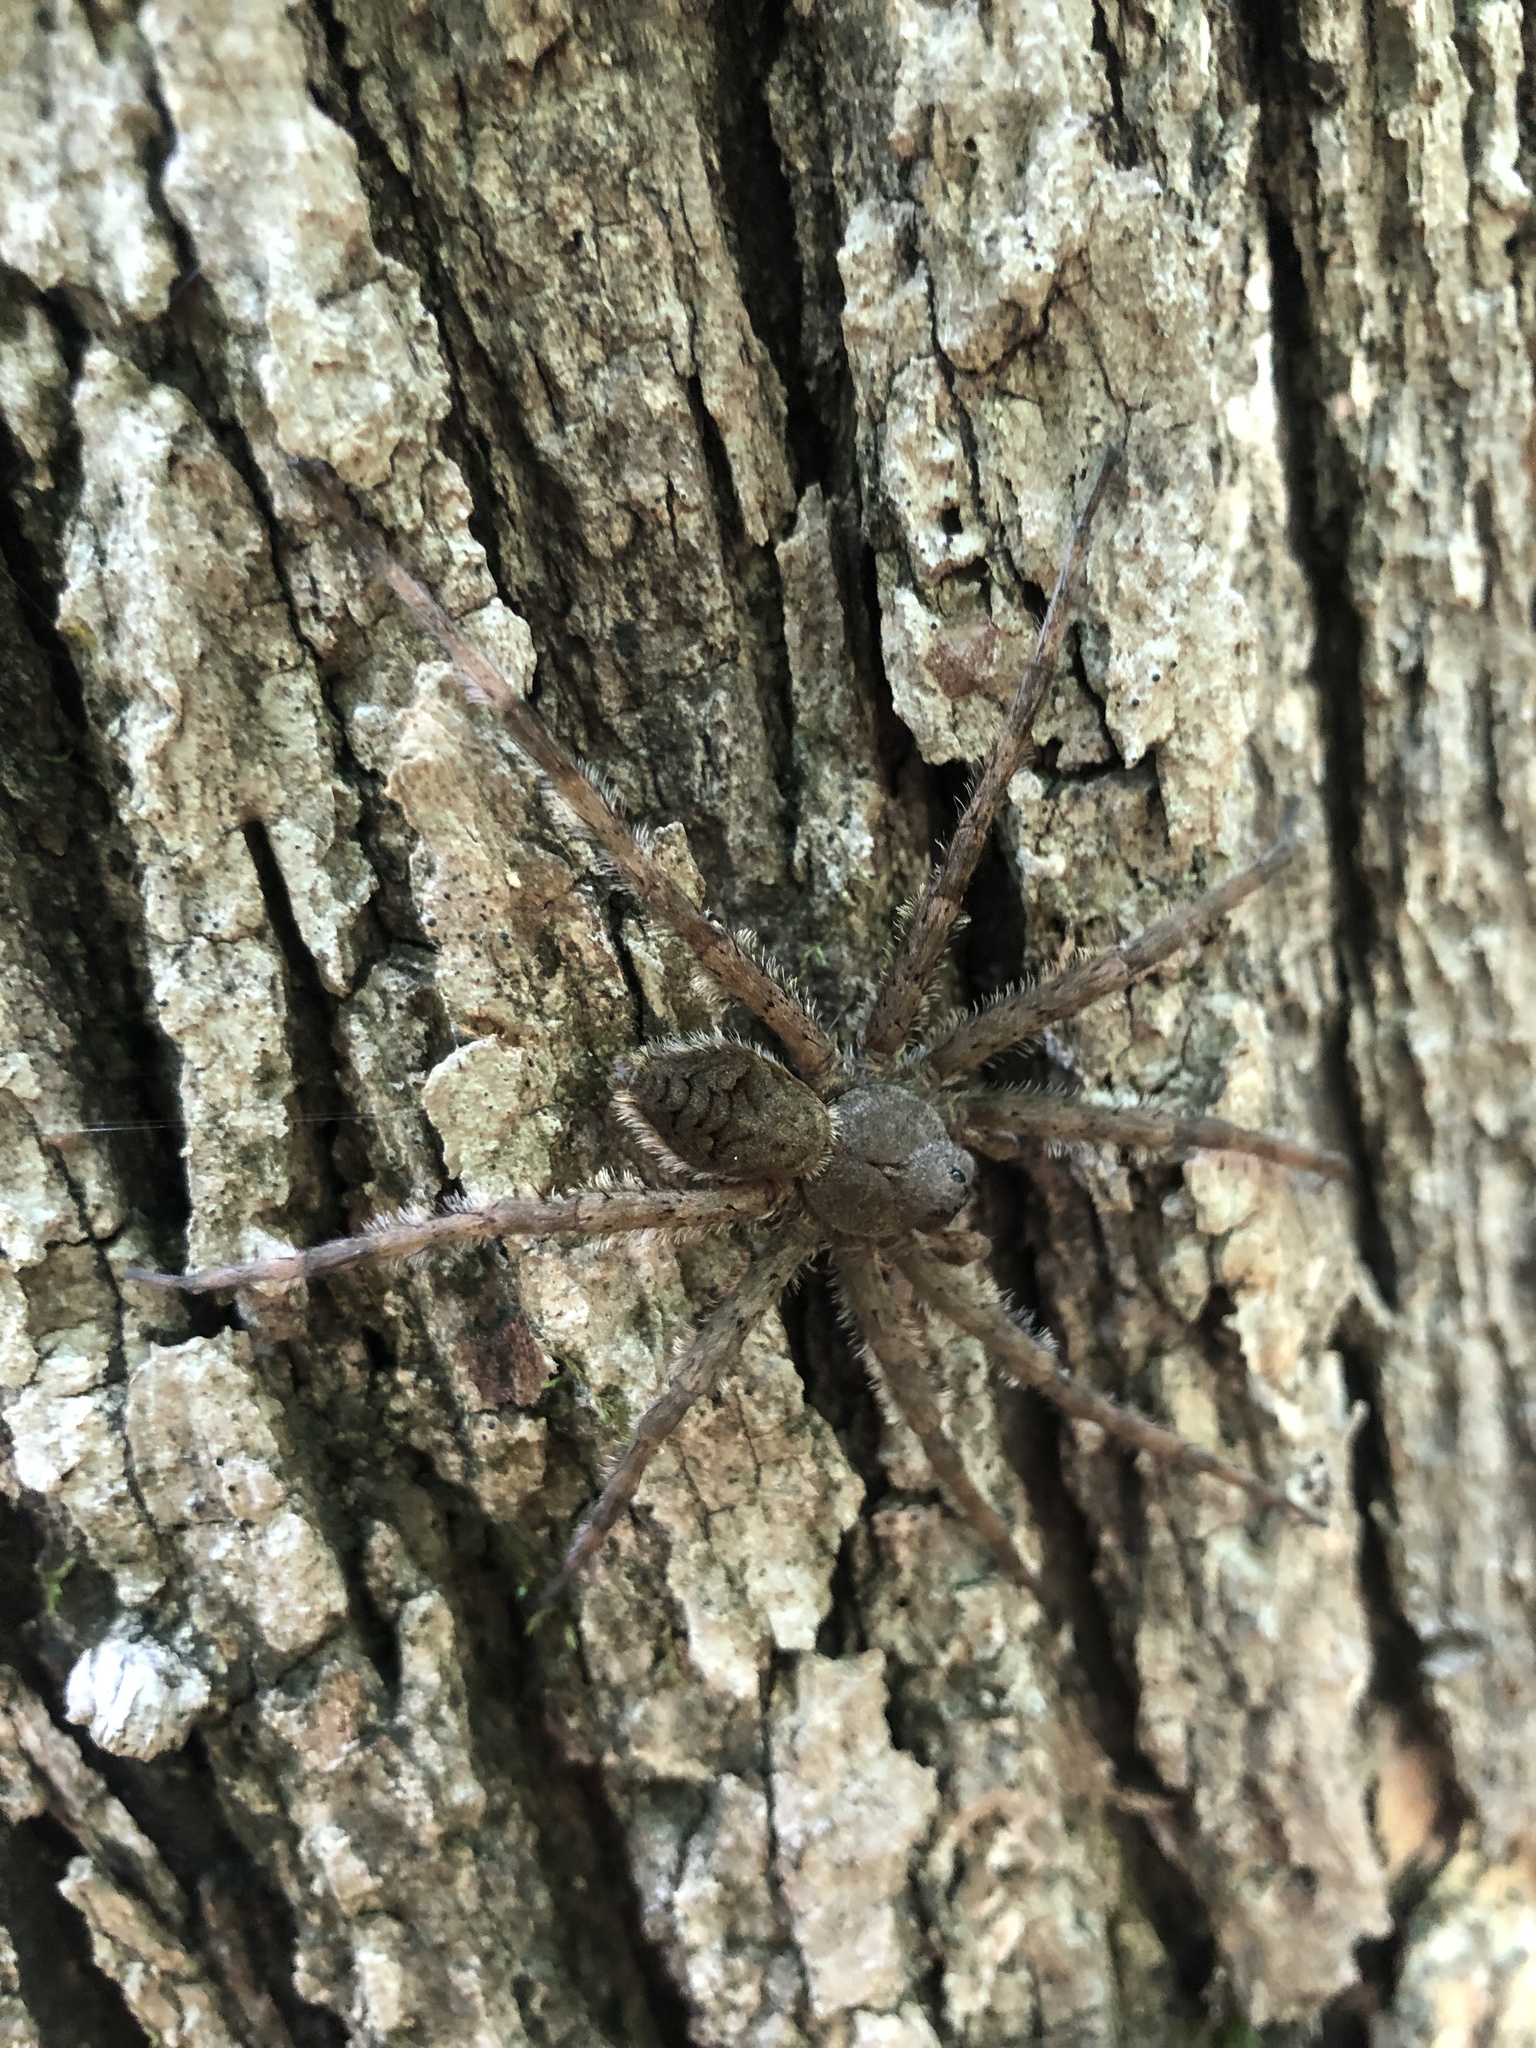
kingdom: Animalia
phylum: Arthropoda
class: Arachnida
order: Araneae
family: Pisauridae
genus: Dolomedes
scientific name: Dolomedes albineus
